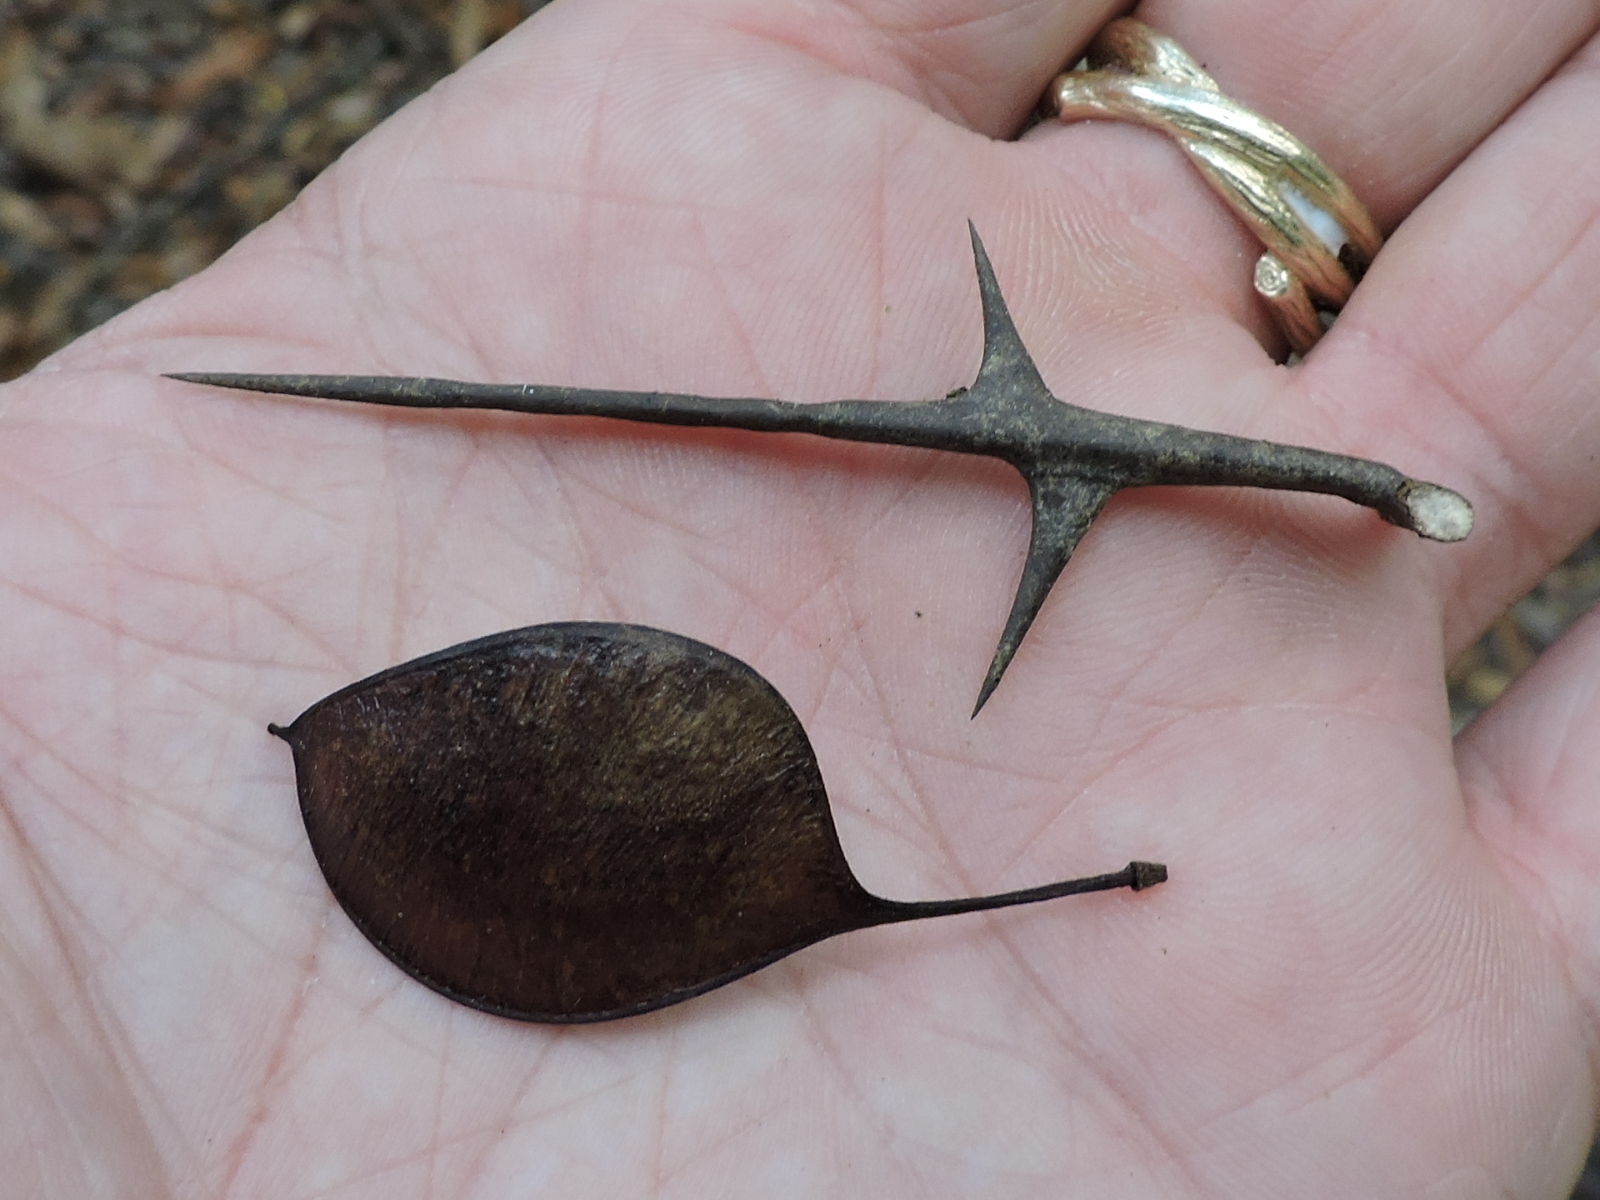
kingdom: Plantae
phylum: Tracheophyta
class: Magnoliopsida
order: Fabales
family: Fabaceae
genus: Gleditsia
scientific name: Gleditsia aquatica
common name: Swamp-locust
